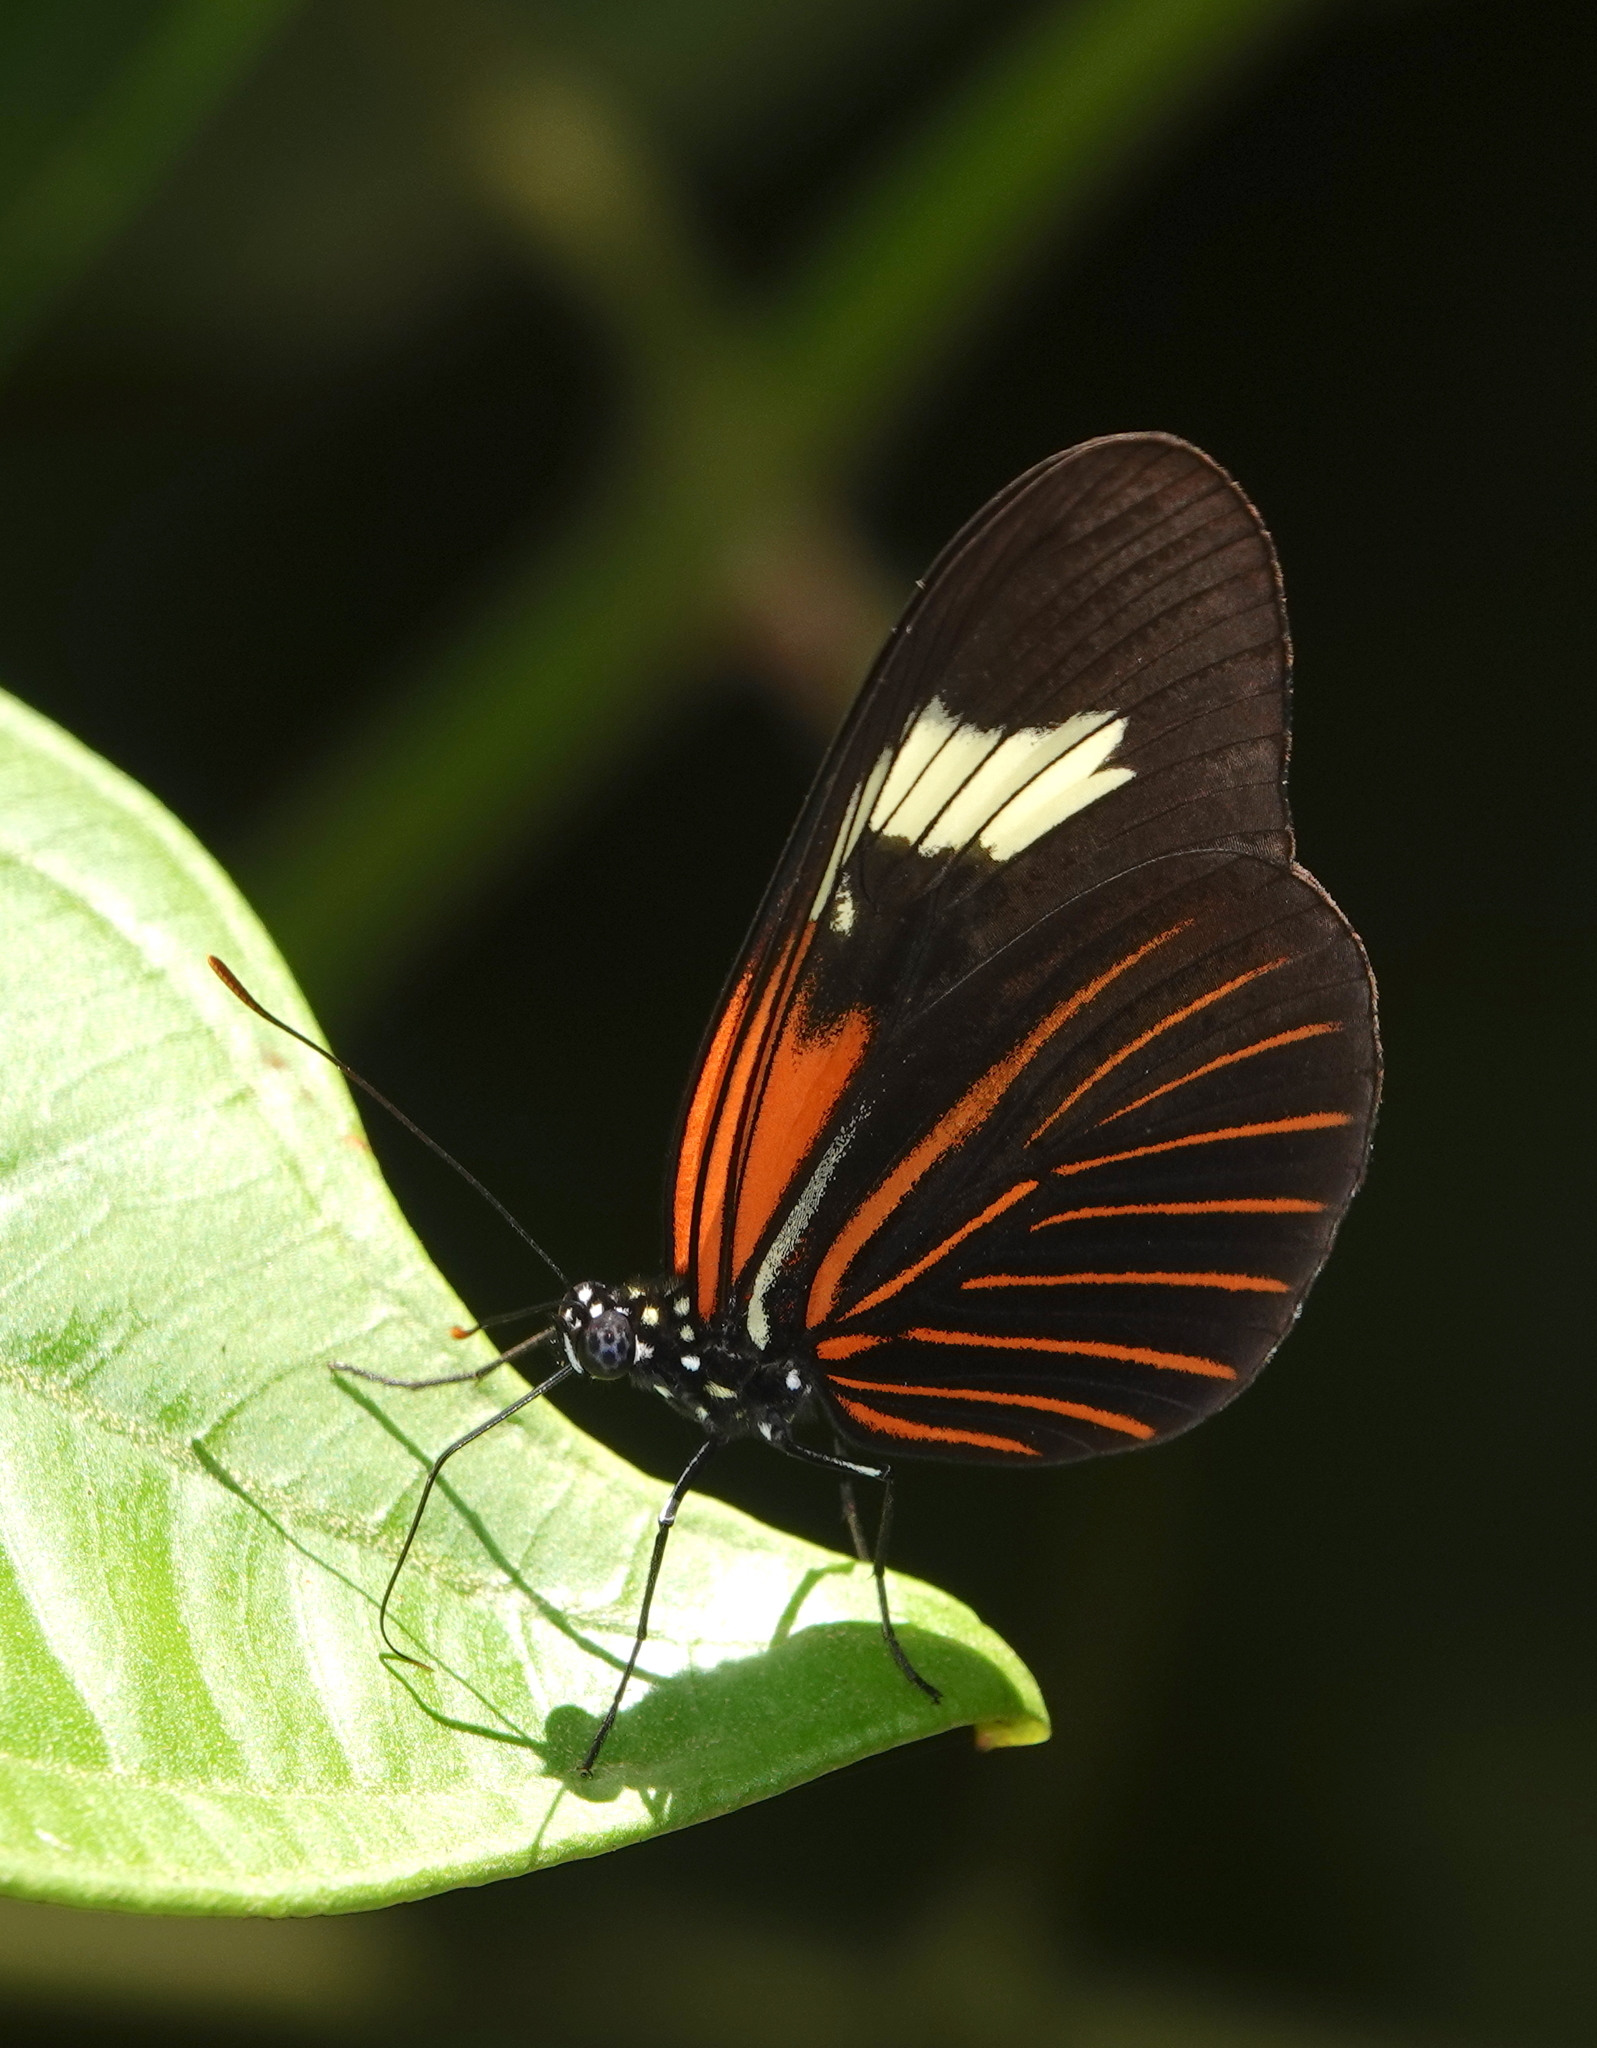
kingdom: Animalia
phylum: Arthropoda
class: Insecta
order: Lepidoptera
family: Nymphalidae
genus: Heliconius
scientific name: Heliconius aoede
